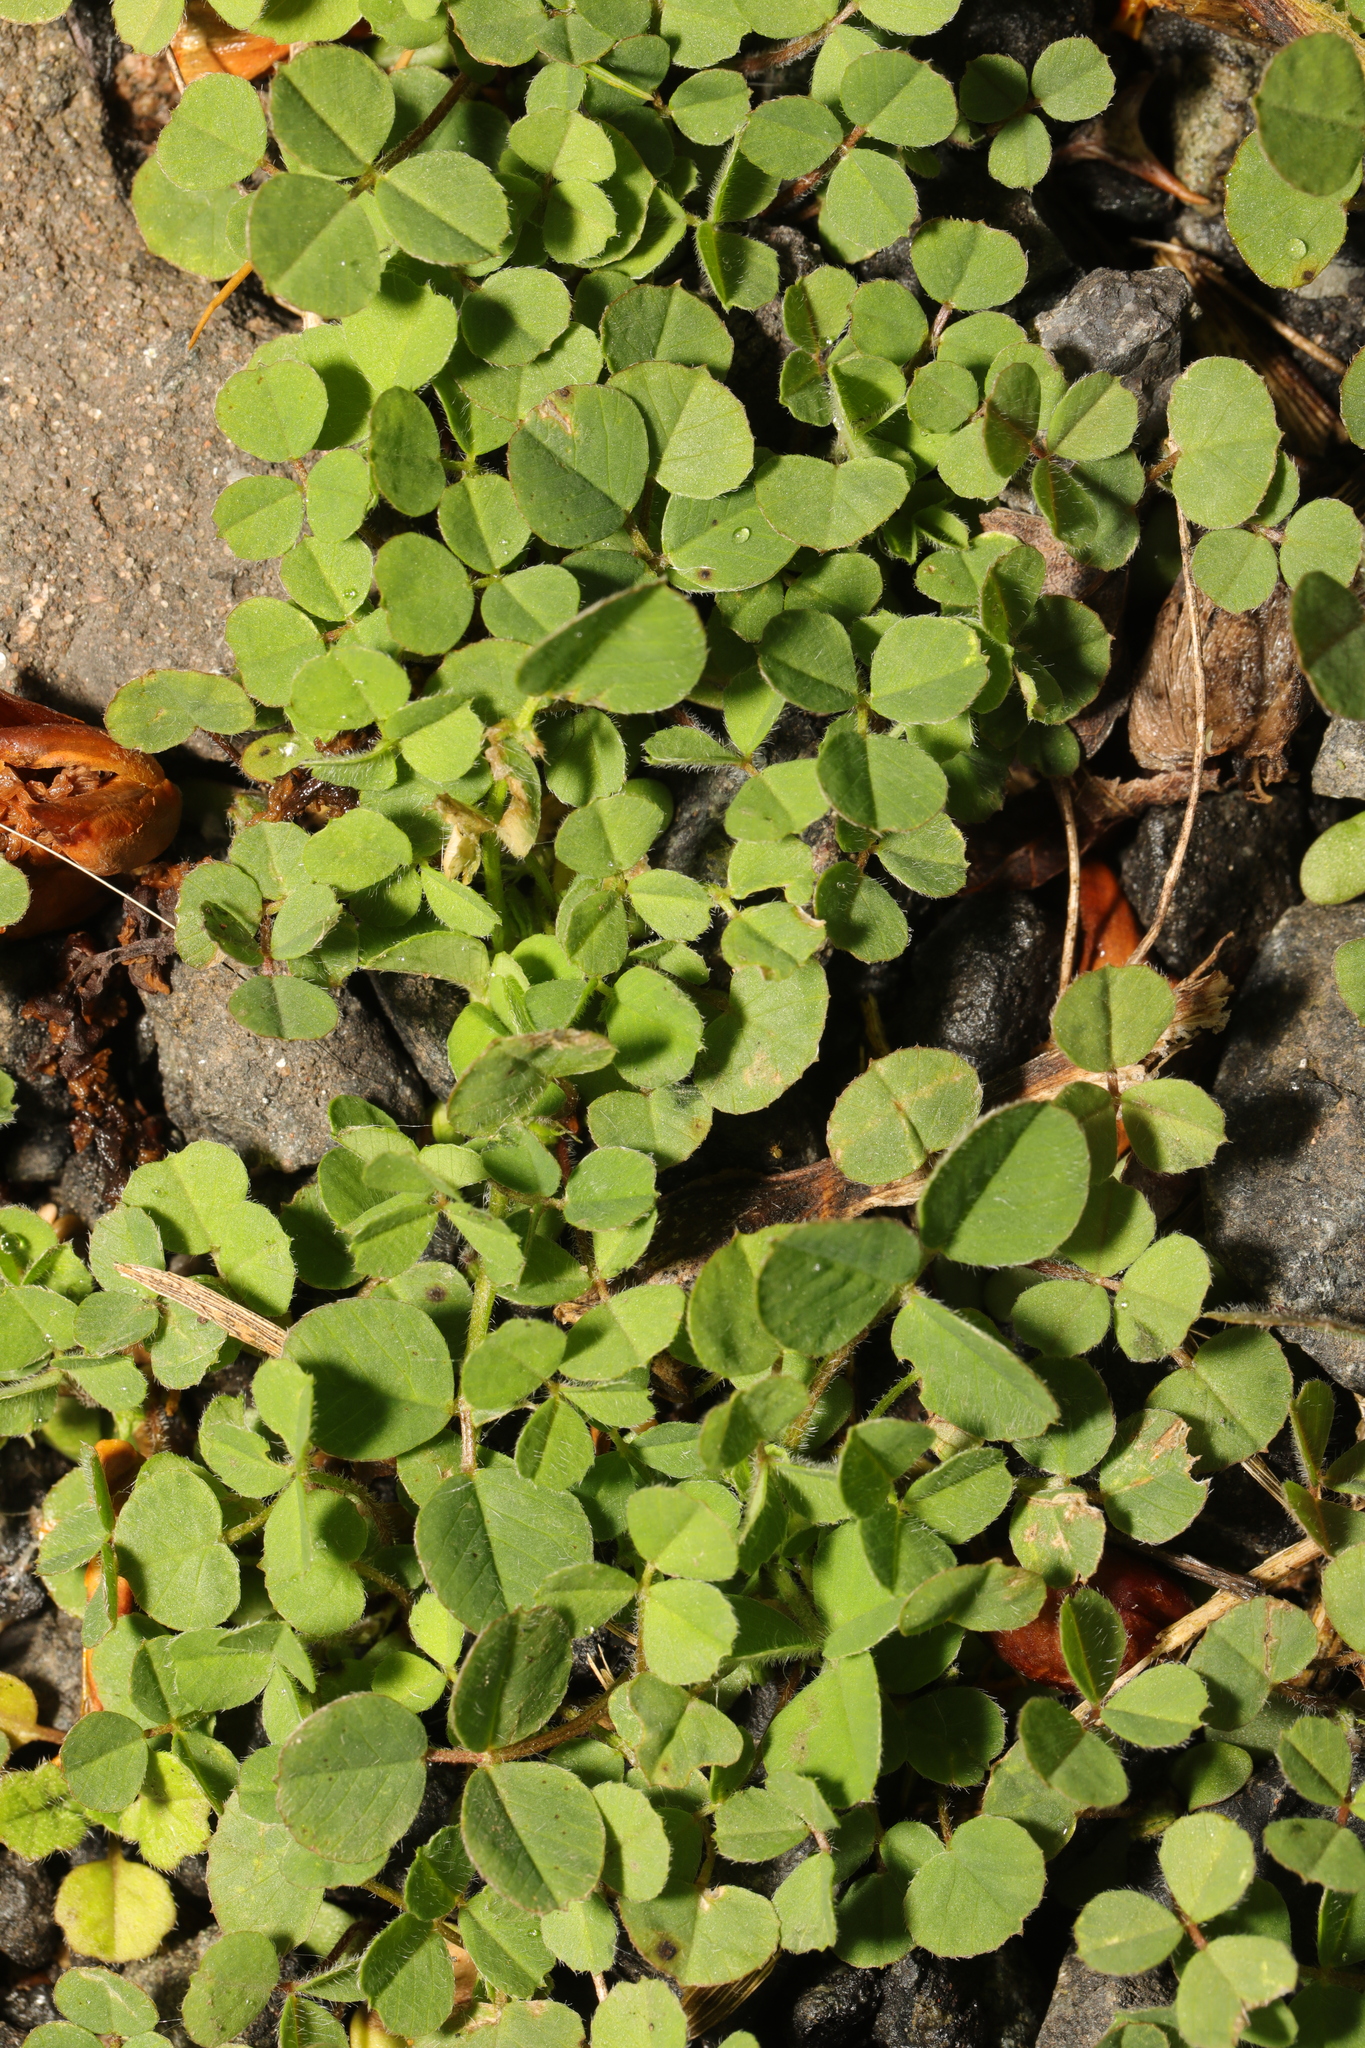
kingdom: Plantae
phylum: Tracheophyta
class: Magnoliopsida
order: Fabales
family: Fabaceae
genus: Medicago
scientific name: Medicago lupulina
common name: Black medick
